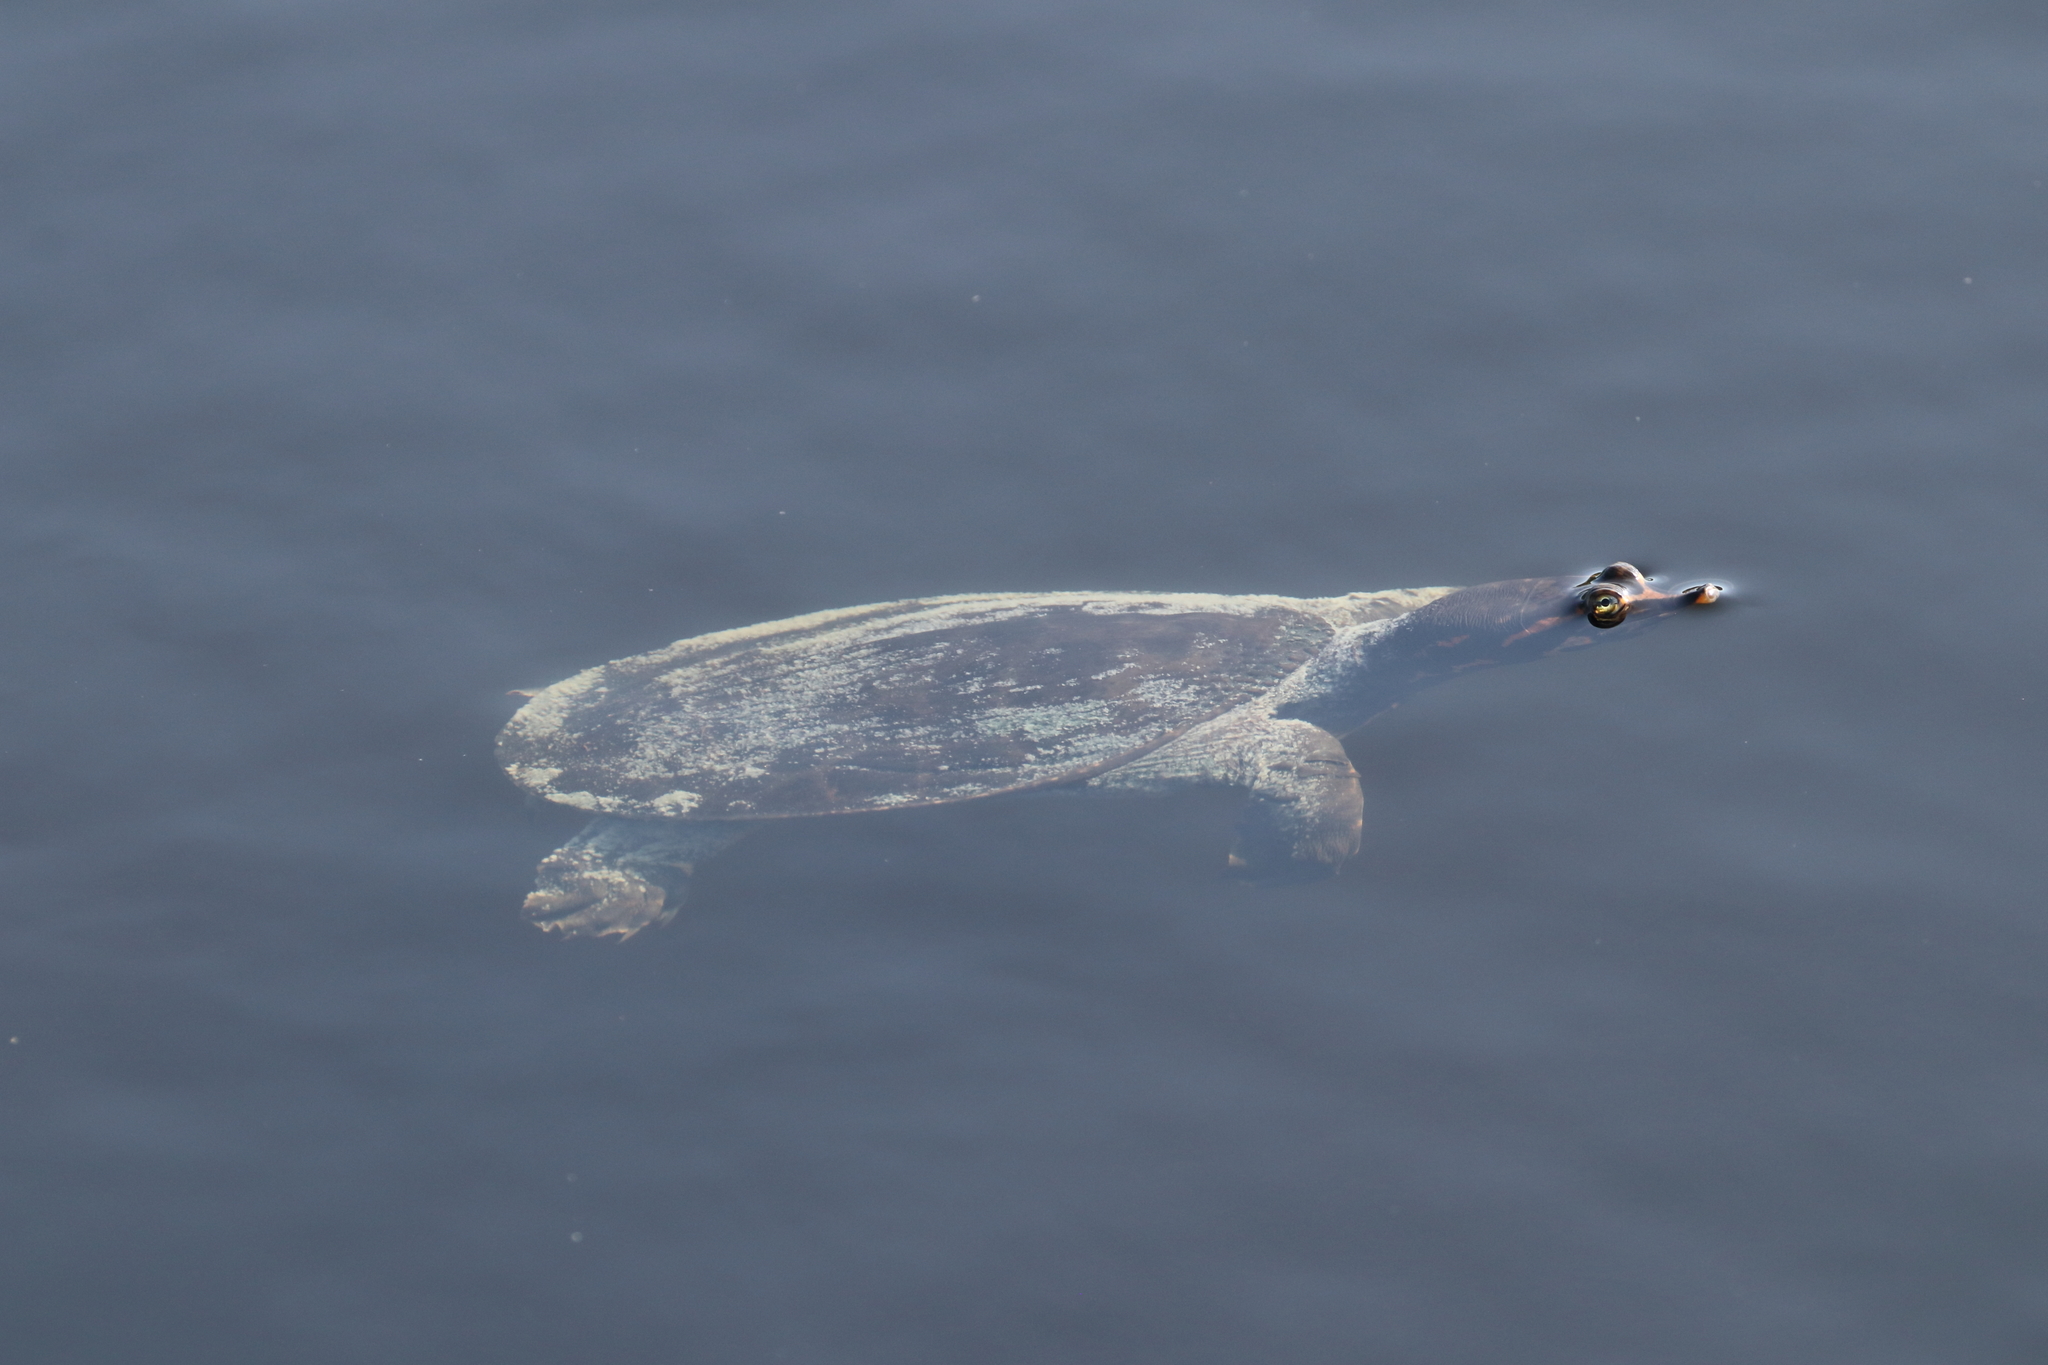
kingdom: Animalia
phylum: Chordata
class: Testudines
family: Trionychidae
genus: Apalone
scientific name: Apalone ferox
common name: Florida softshell turtle
